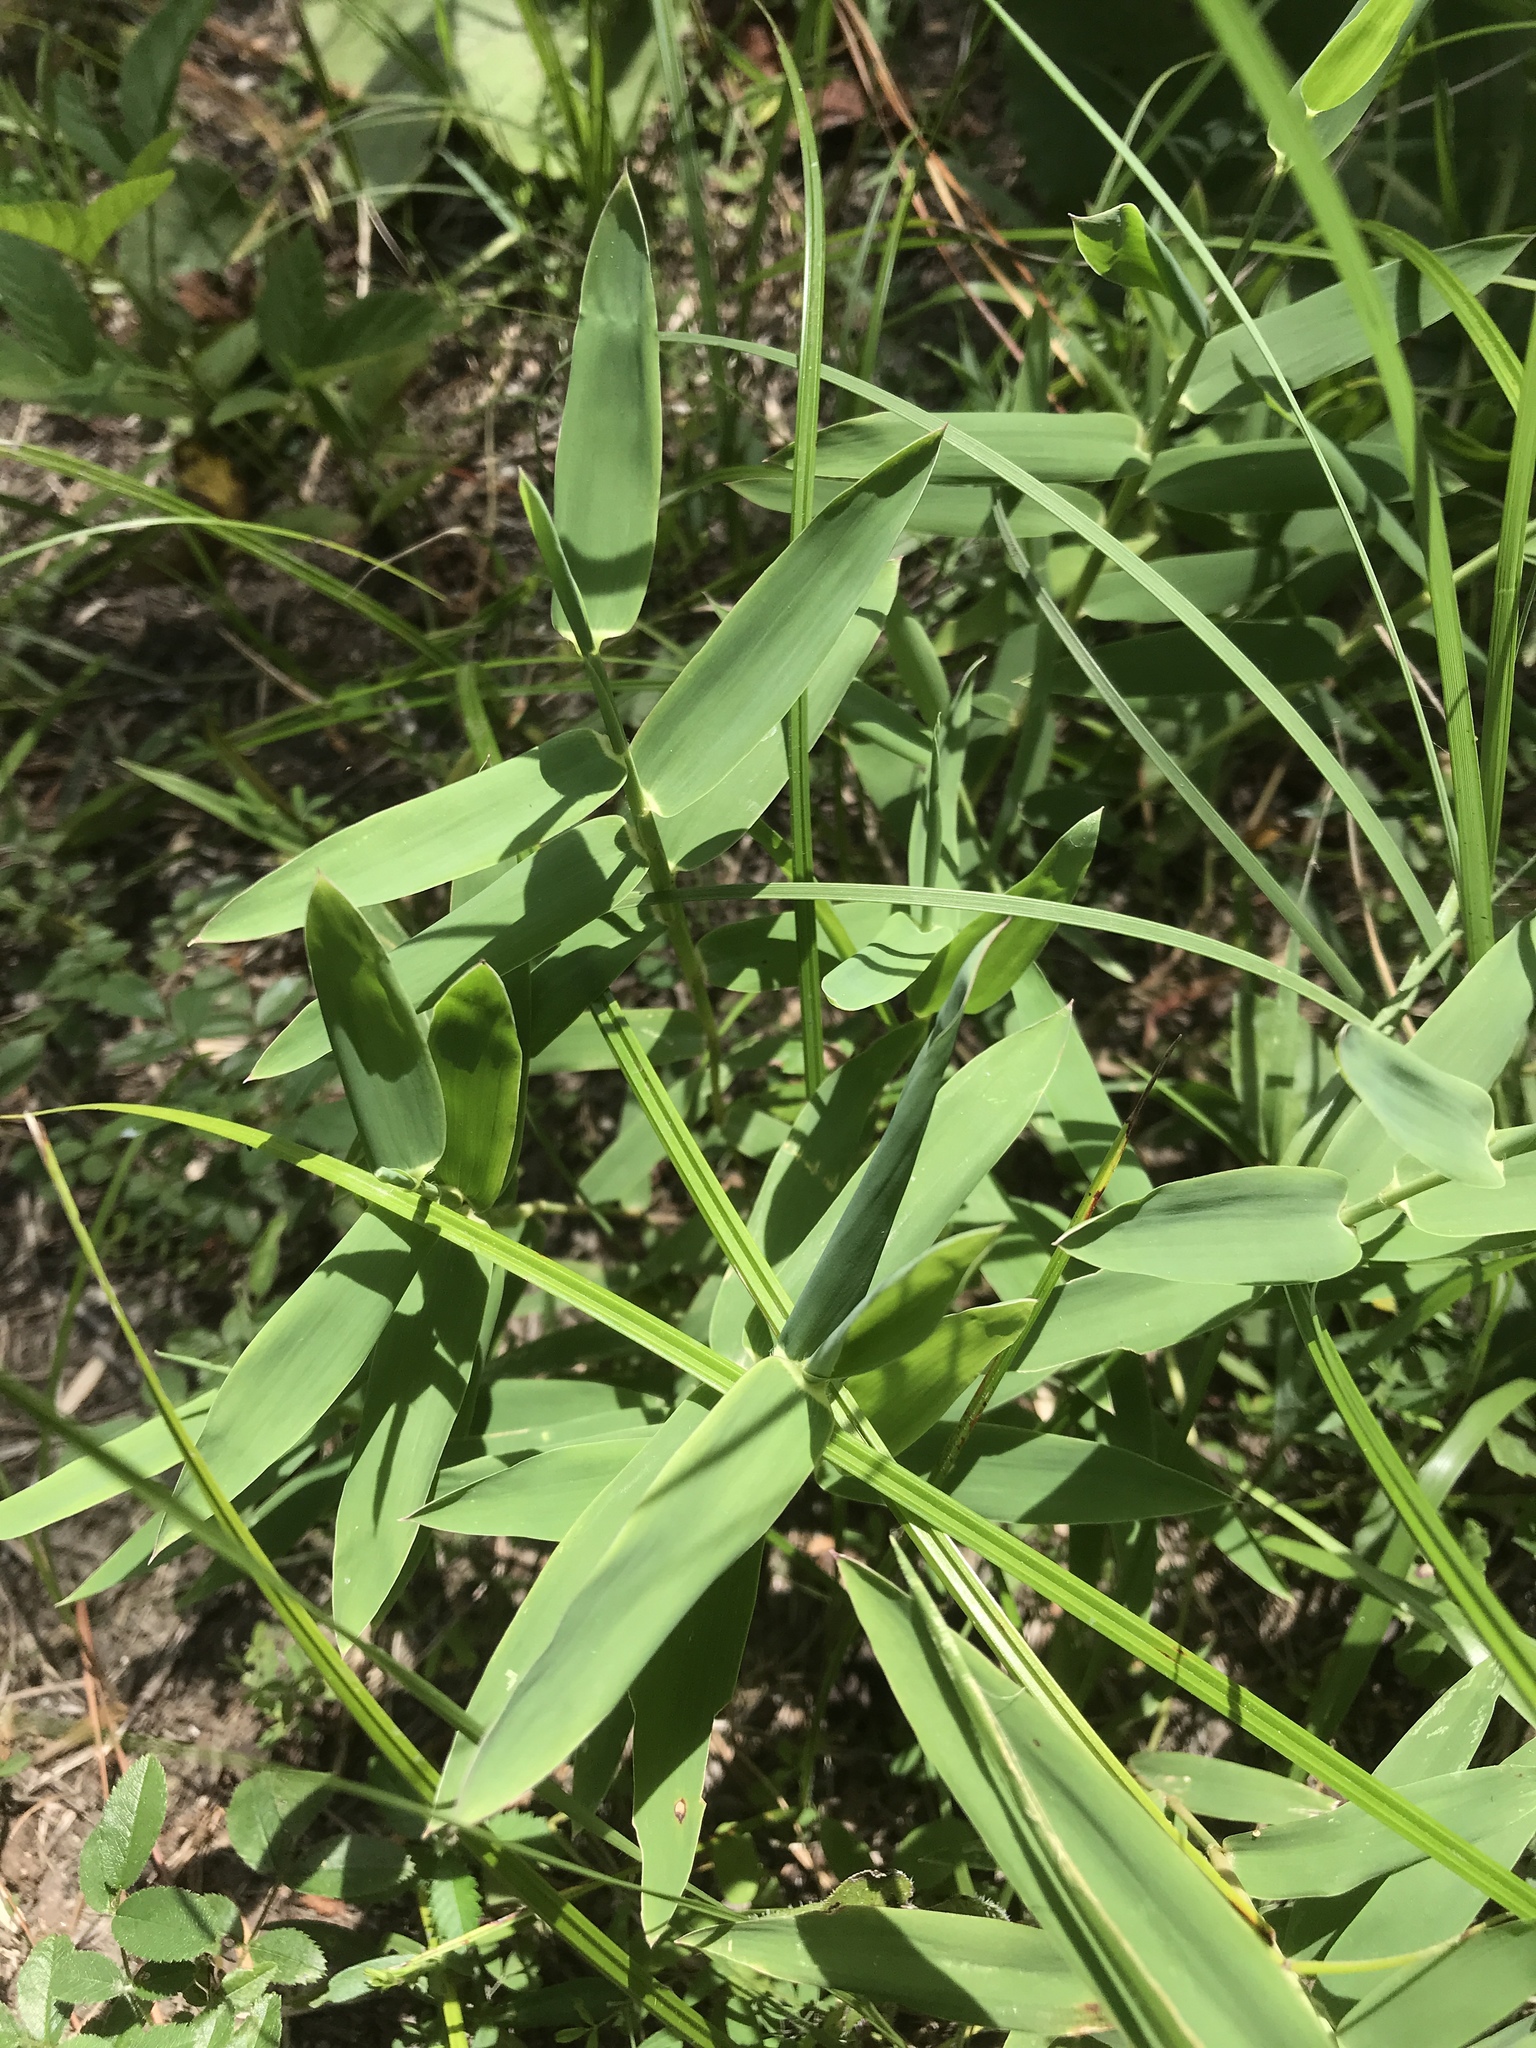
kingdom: Plantae
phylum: Tracheophyta
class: Liliopsida
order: Poales
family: Poaceae
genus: Gymnopogon
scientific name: Gymnopogon ambiguus
